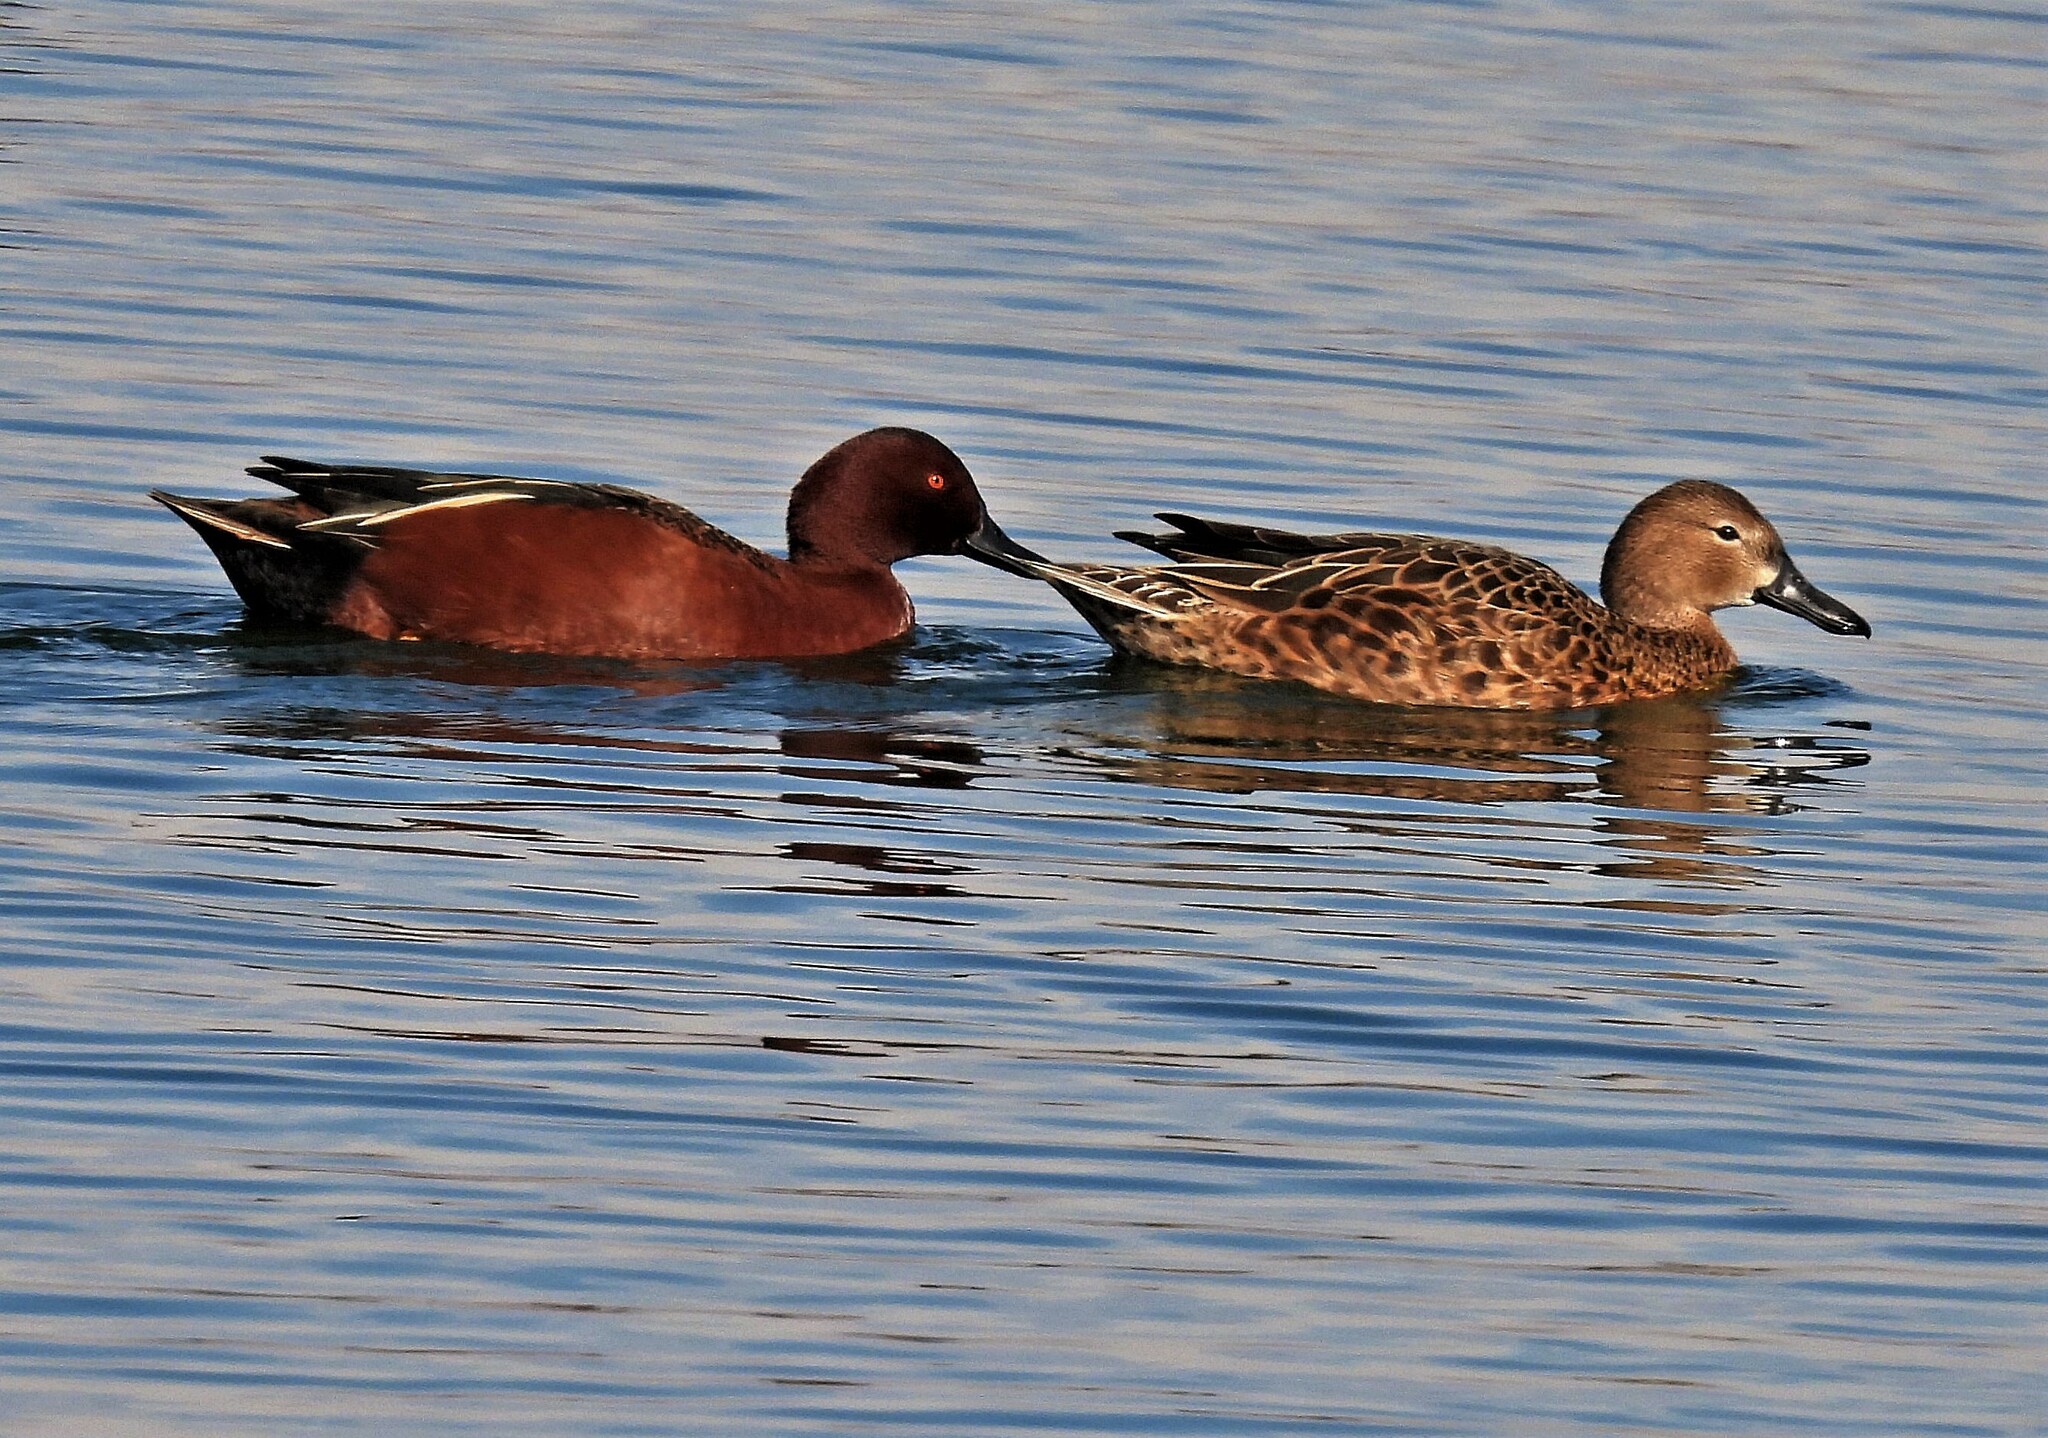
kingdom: Animalia
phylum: Chordata
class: Aves
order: Anseriformes
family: Anatidae
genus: Spatula
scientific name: Spatula cyanoptera
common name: Cinnamon teal
